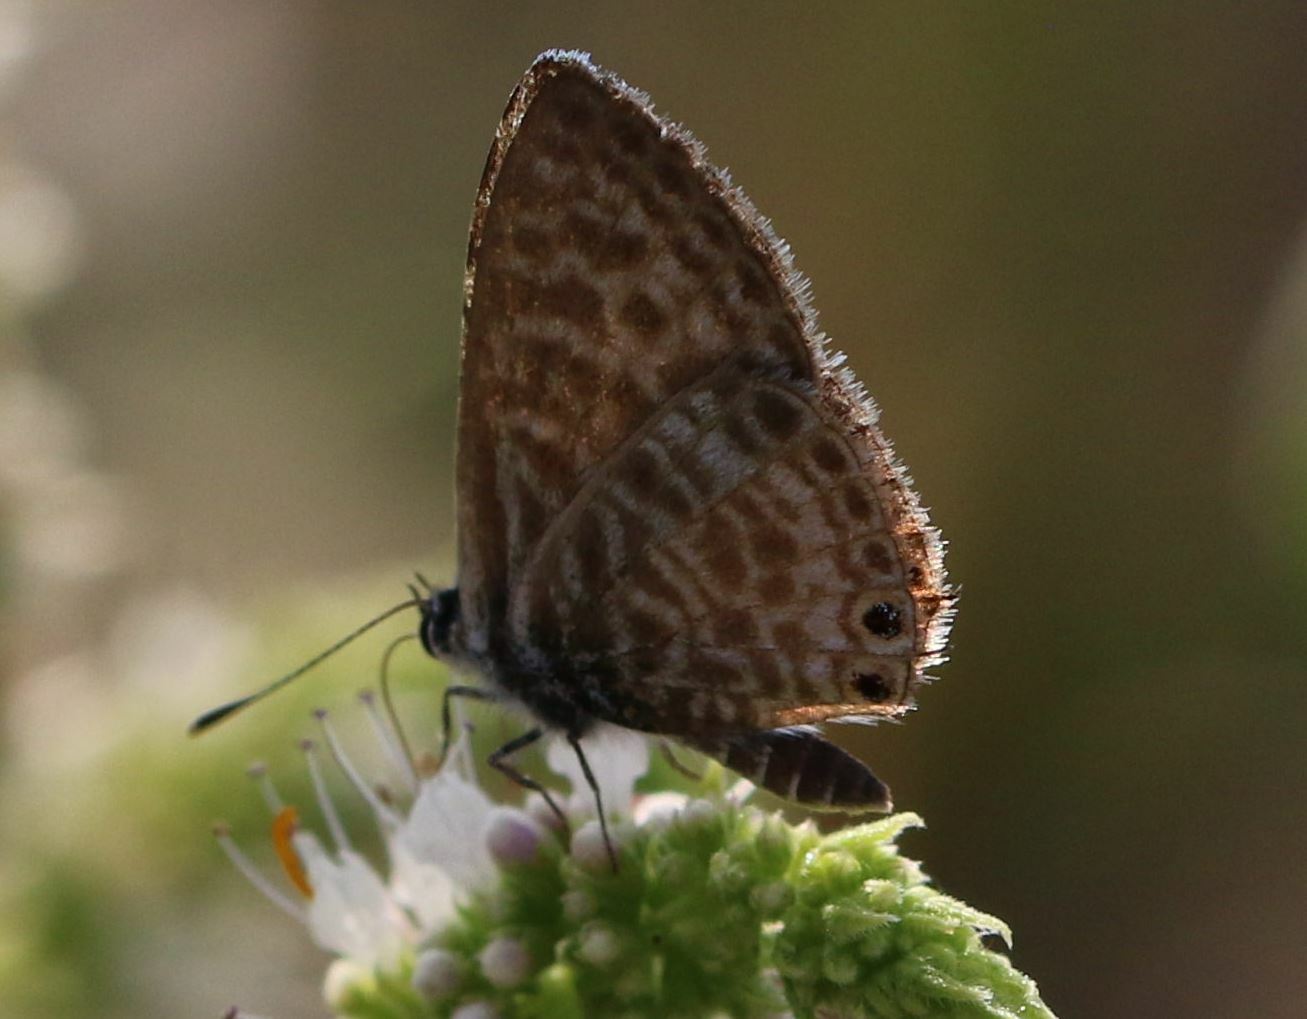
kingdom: Animalia
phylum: Arthropoda
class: Insecta
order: Lepidoptera
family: Lycaenidae
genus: Leptotes
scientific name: Leptotes pirithous
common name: Lang's short-tailed blue
